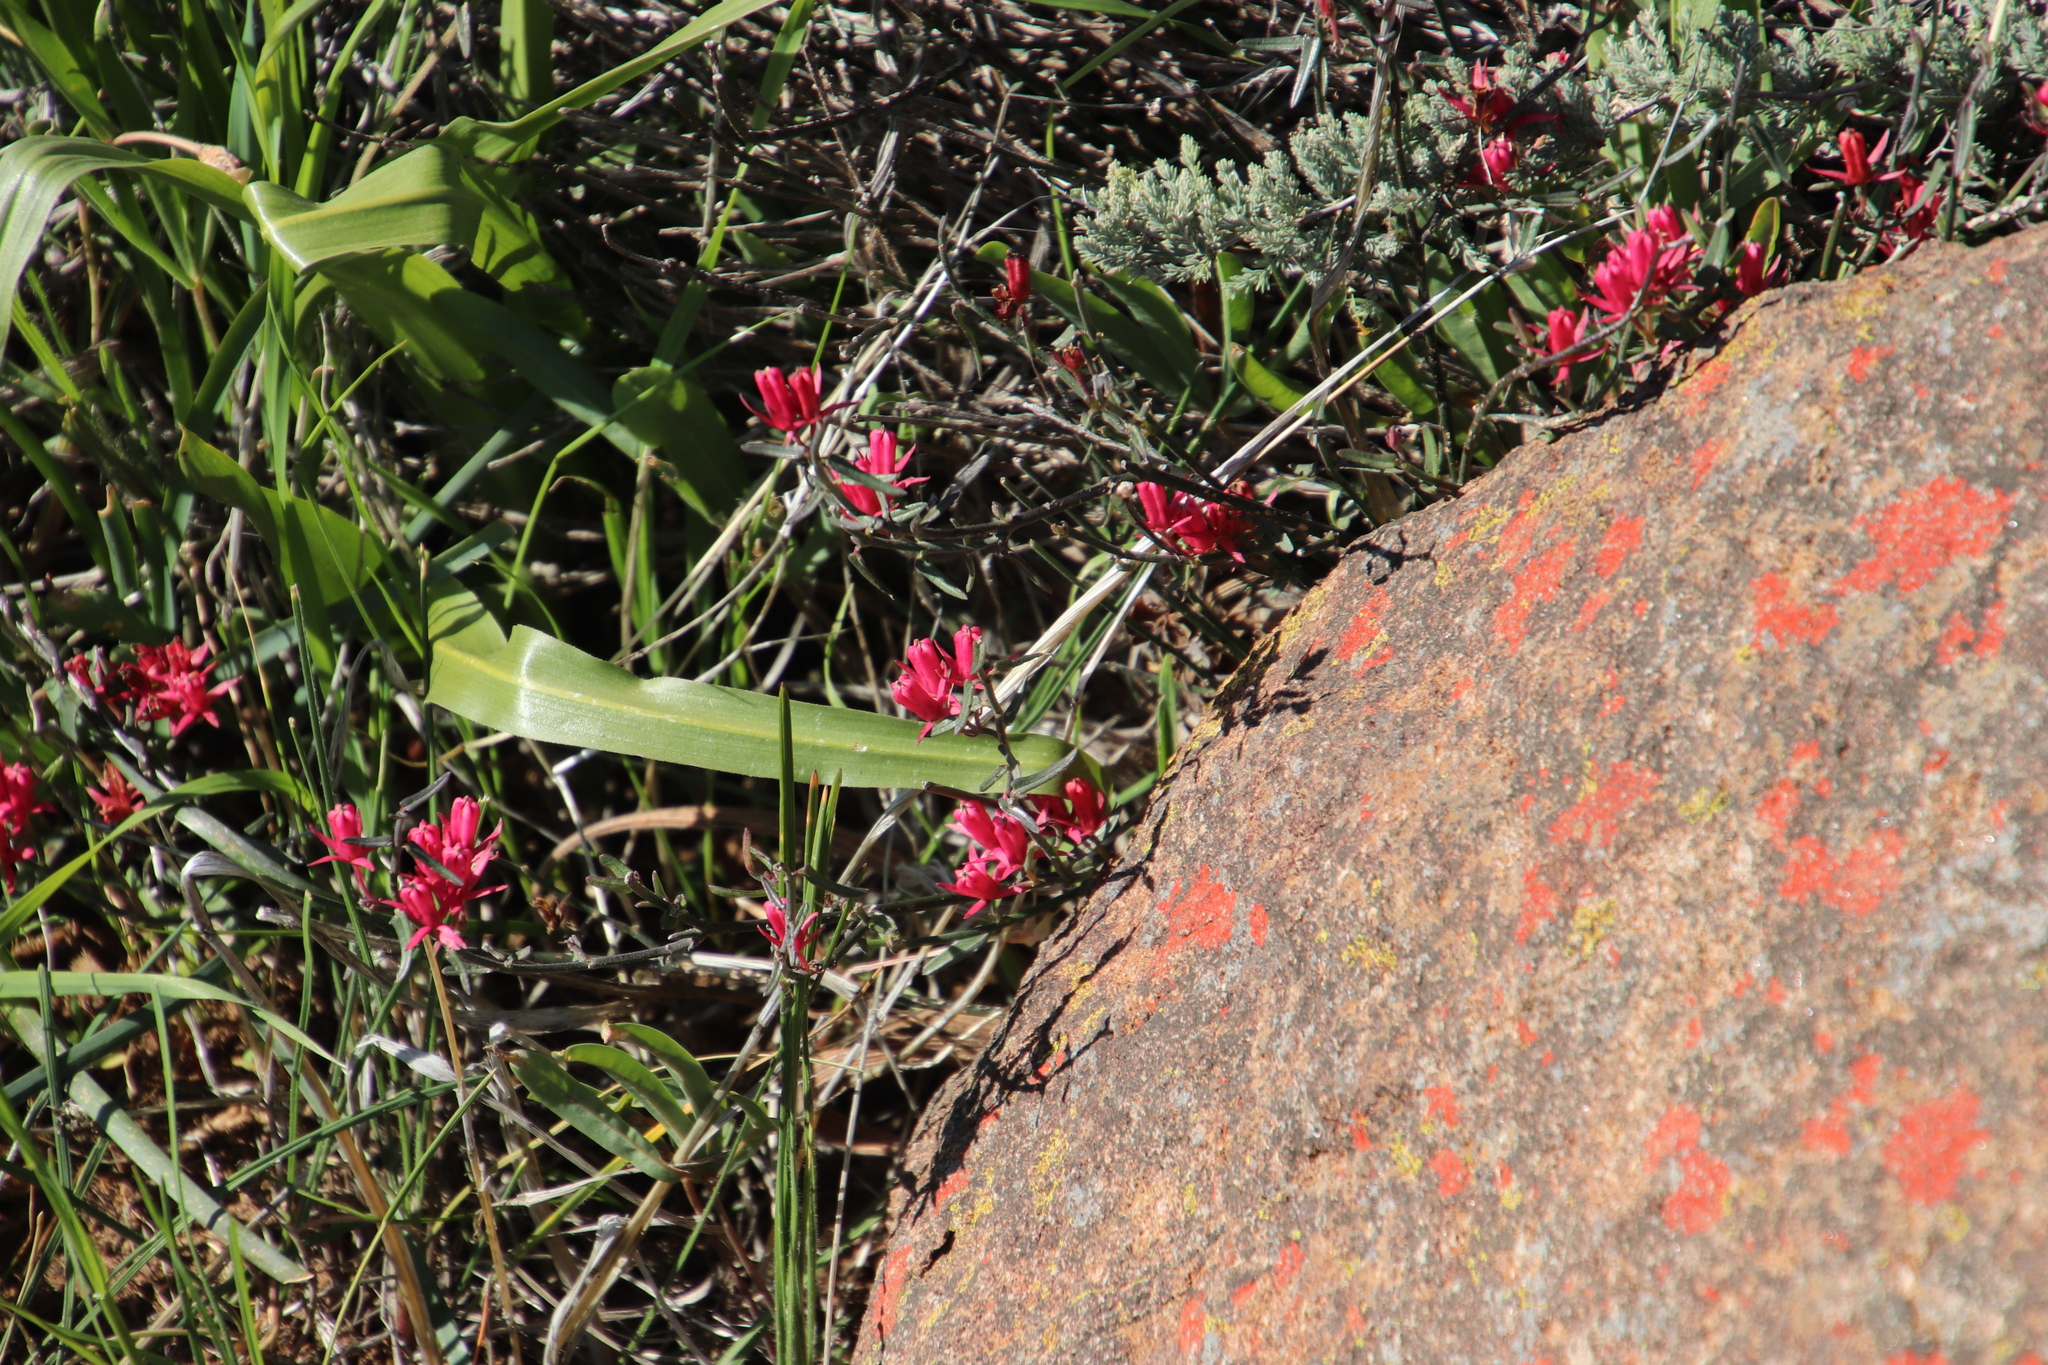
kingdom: Plantae
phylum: Tracheophyta
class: Magnoliopsida
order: Gentianales
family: Apocynaceae
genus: Microloma
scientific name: Microloma sagittatum
